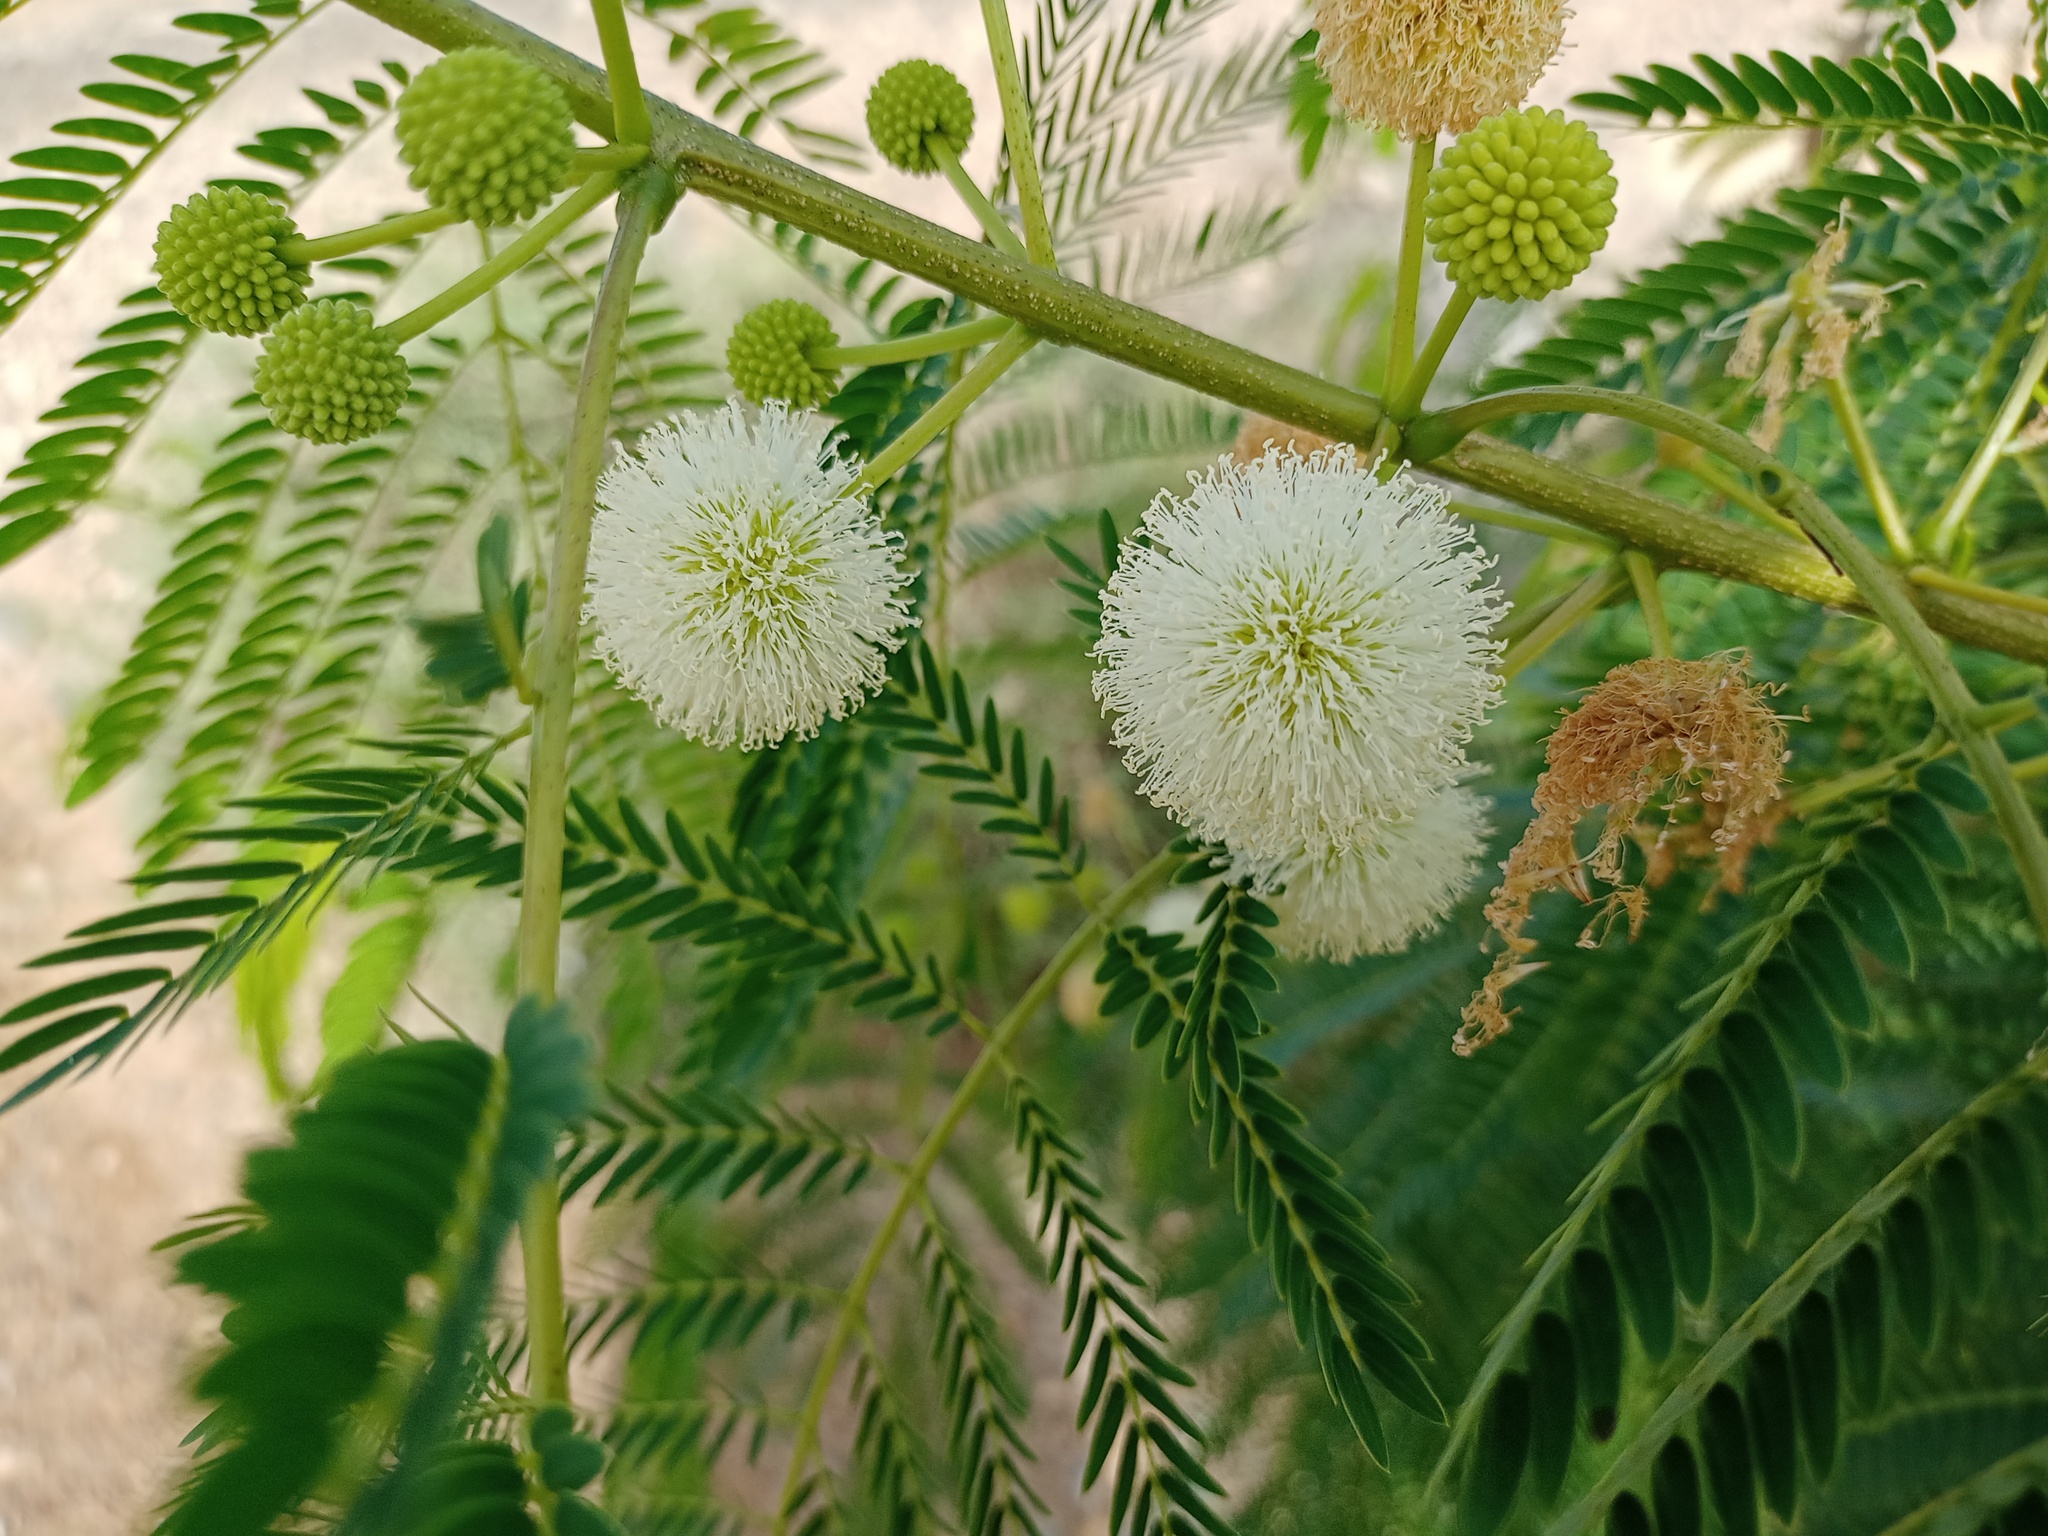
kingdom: Plantae
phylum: Tracheophyta
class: Magnoliopsida
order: Fabales
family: Fabaceae
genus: Leucaena
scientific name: Leucaena leucocephala
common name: White leadtree
